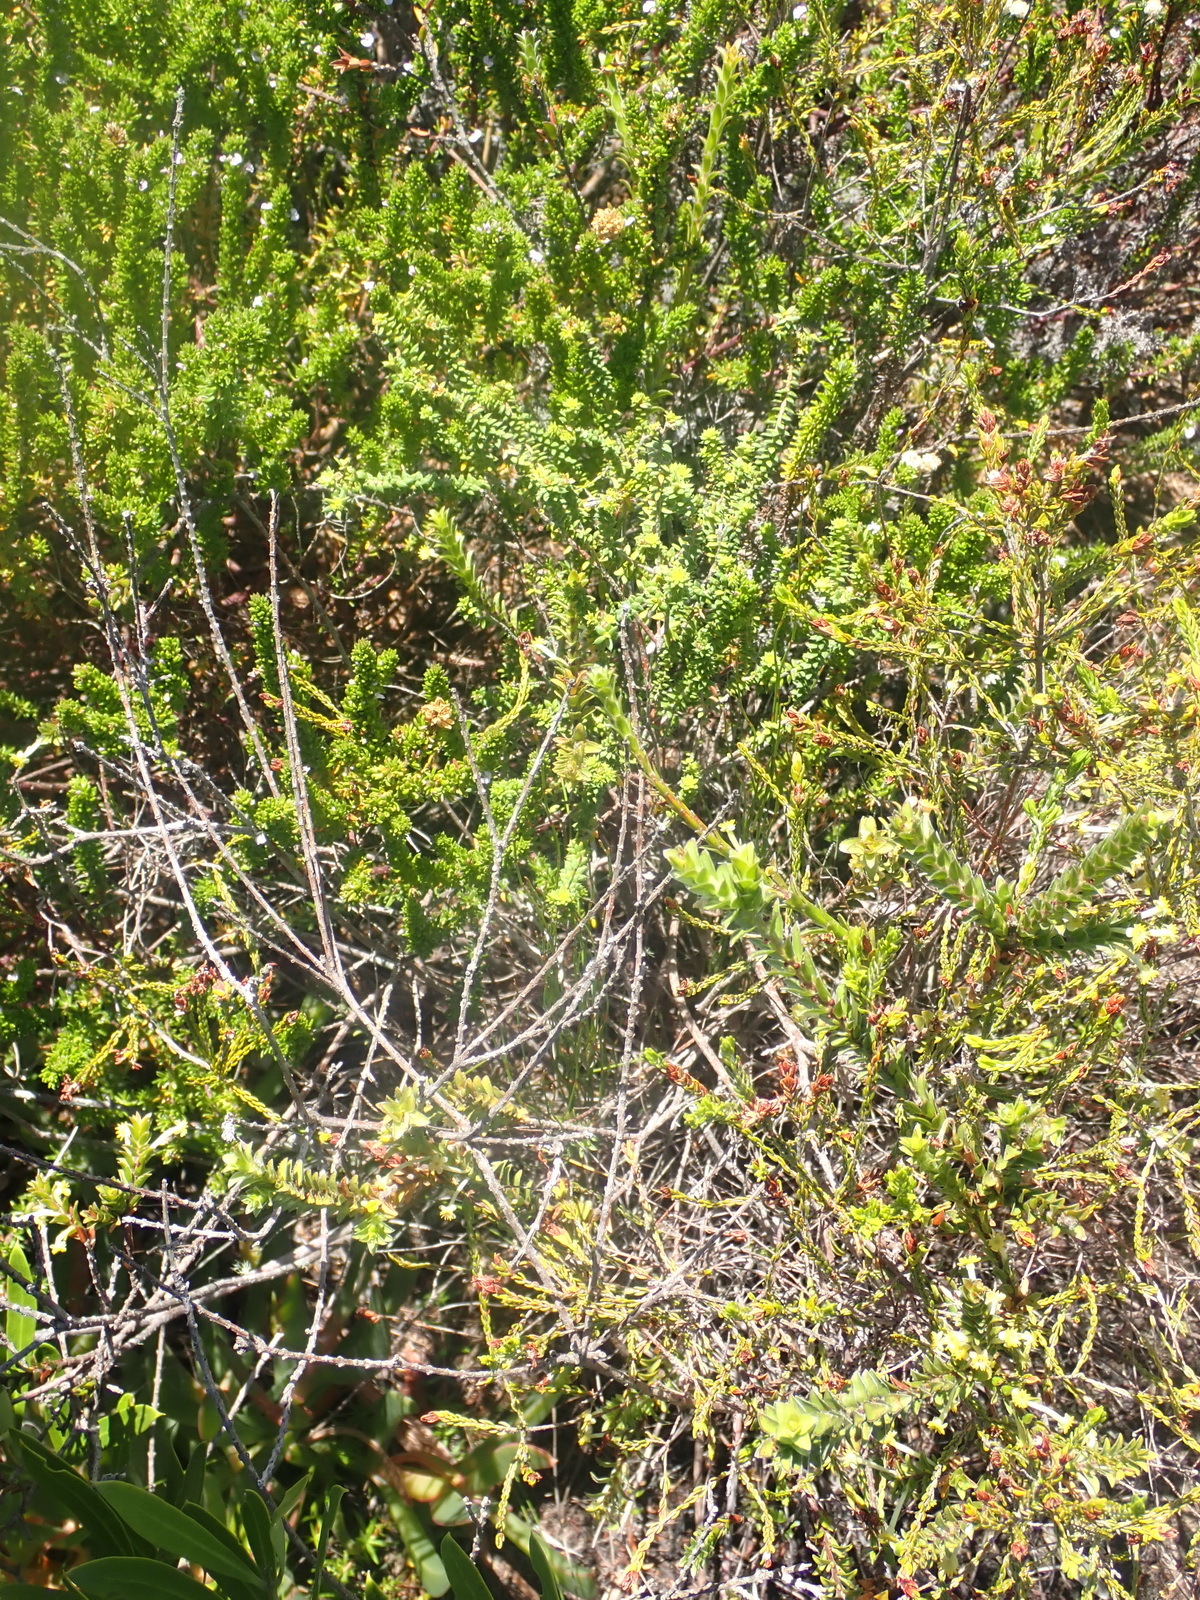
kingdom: Plantae
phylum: Tracheophyta
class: Magnoliopsida
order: Malvales
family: Thymelaeaceae
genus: Struthiola
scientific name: Struthiola argentea
